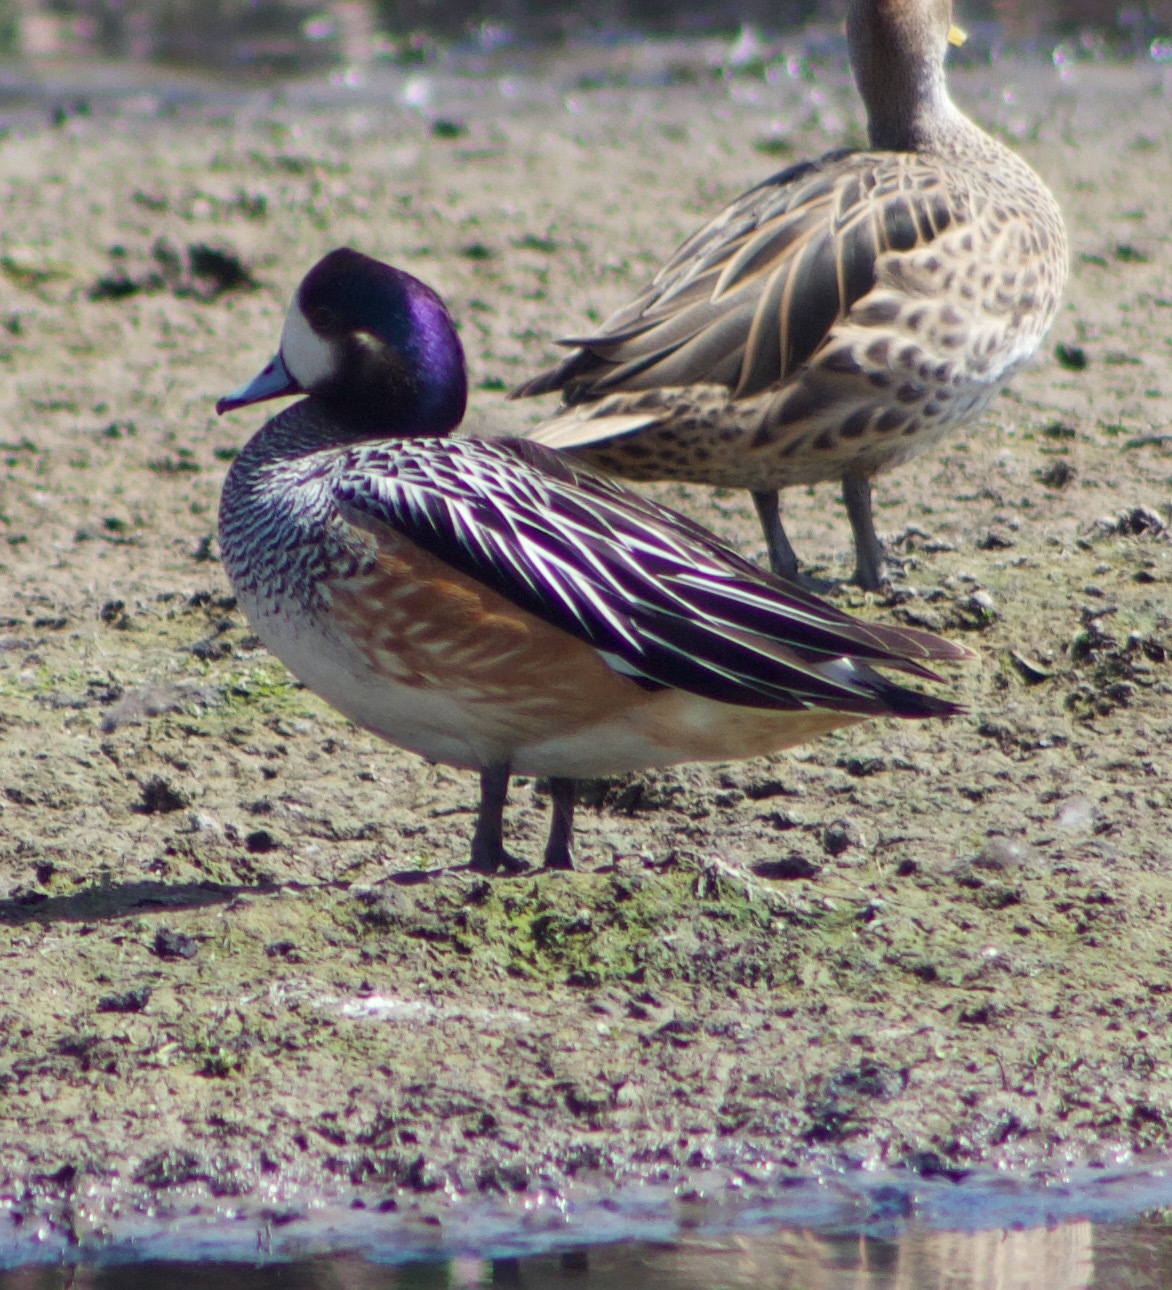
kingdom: Animalia
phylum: Chordata
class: Aves
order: Anseriformes
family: Anatidae
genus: Mareca
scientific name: Mareca sibilatrix
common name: Chiloe wigeon
